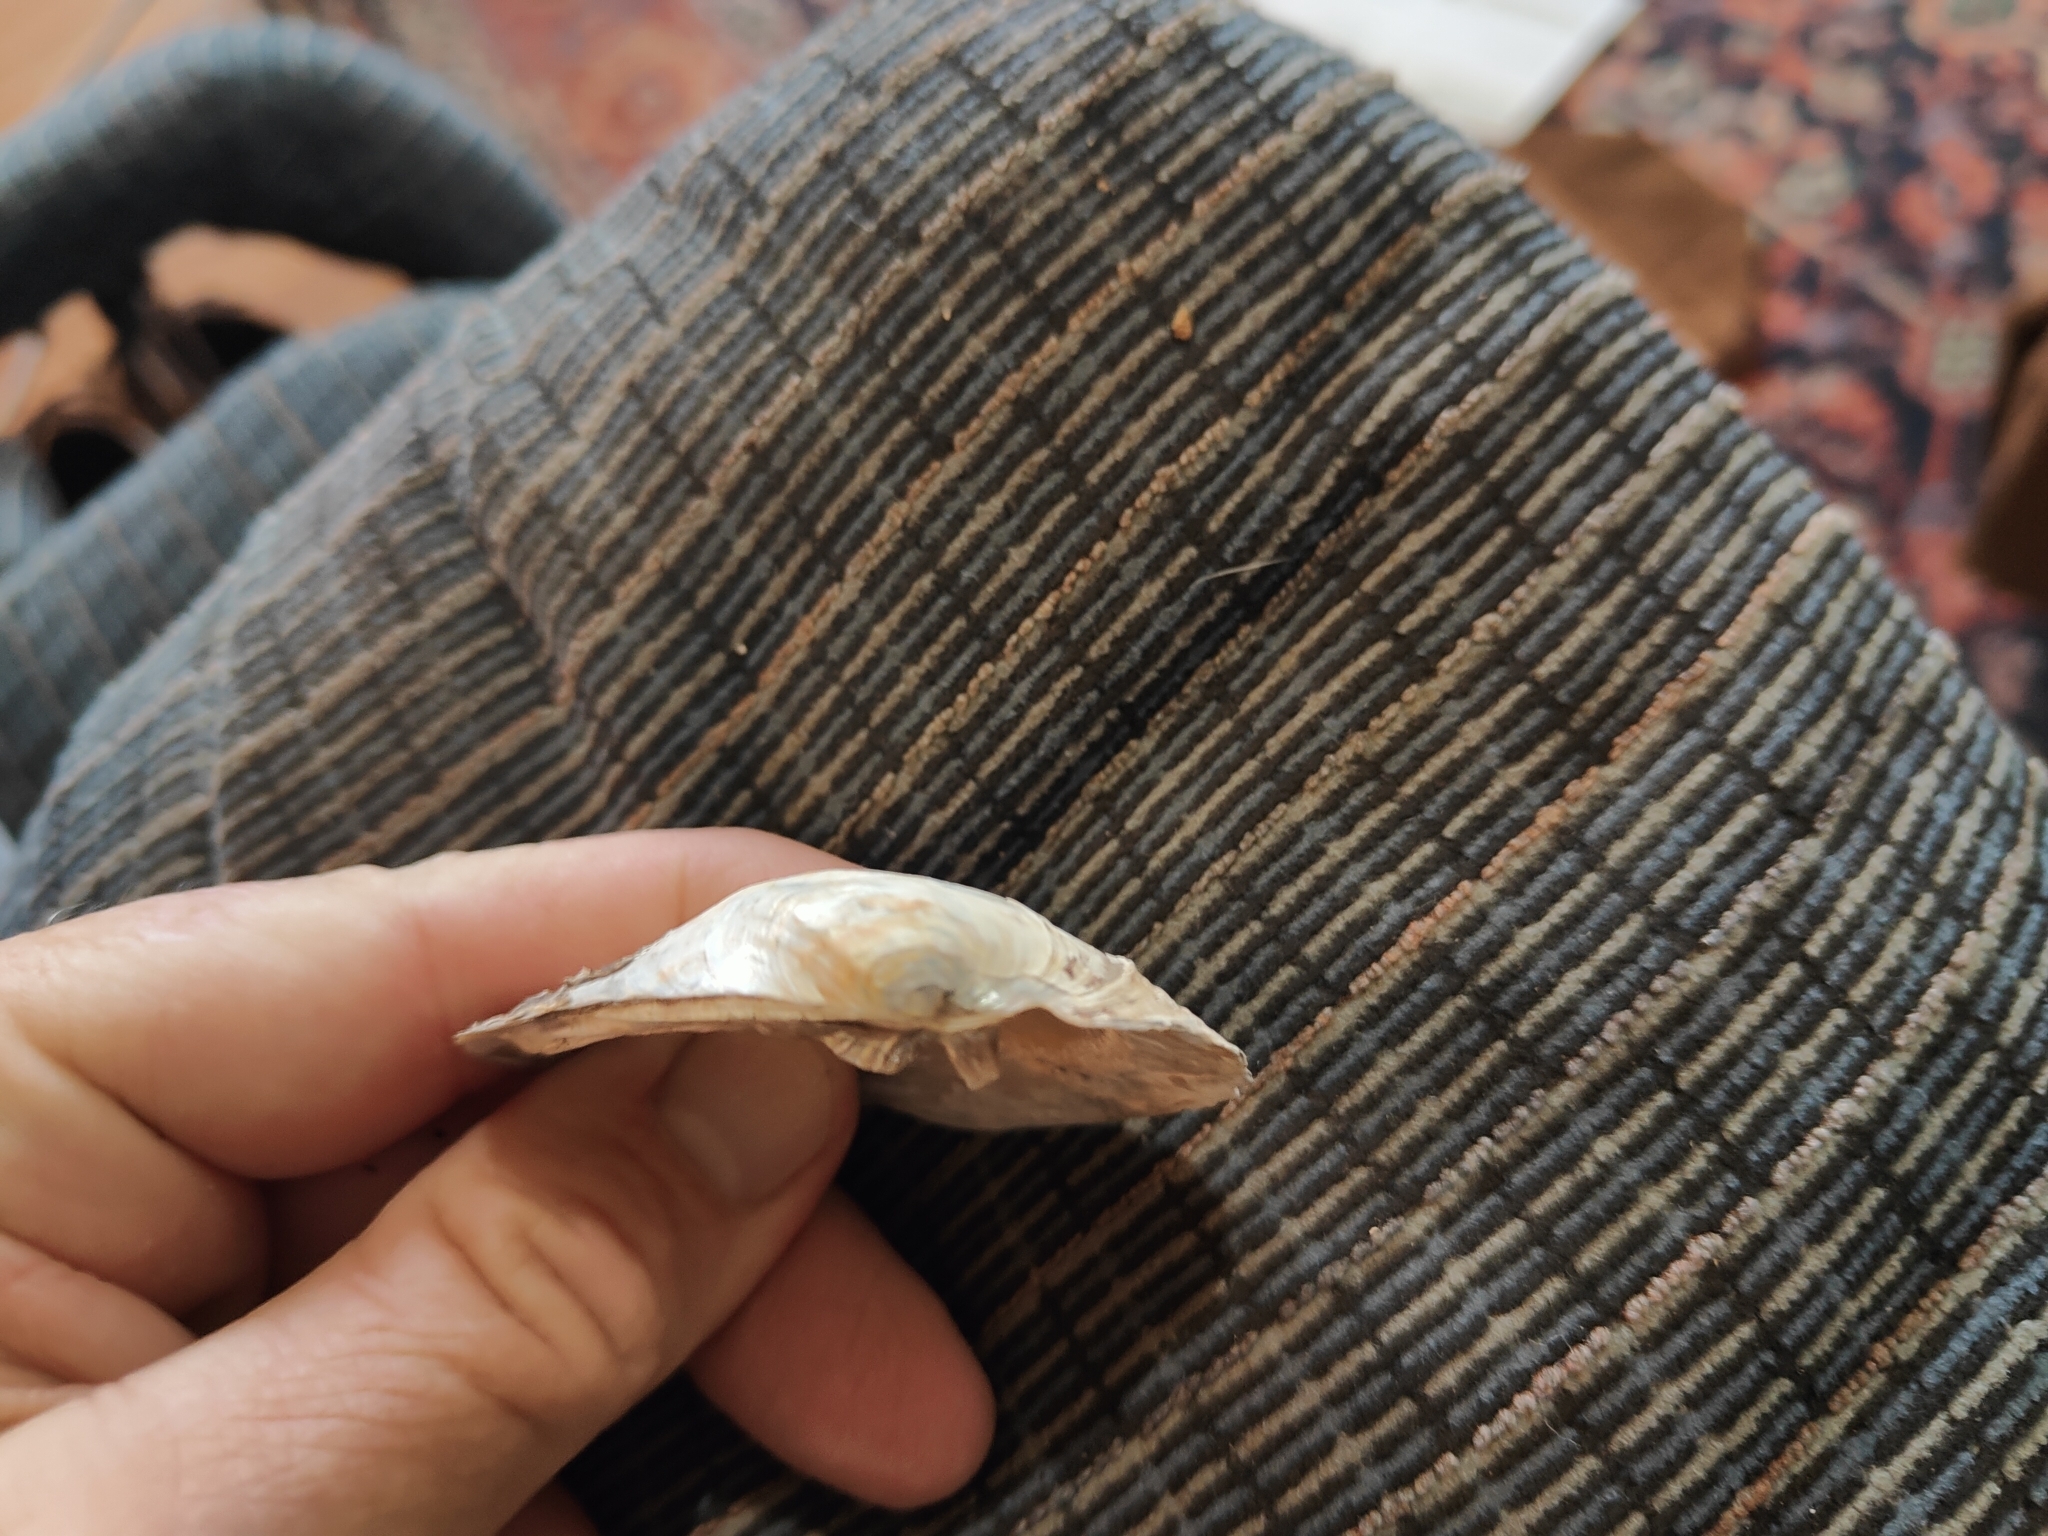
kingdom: Animalia
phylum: Mollusca
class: Bivalvia
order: Unionida
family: Unionidae
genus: Amblema
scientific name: Amblema plicata
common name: Threeridge
